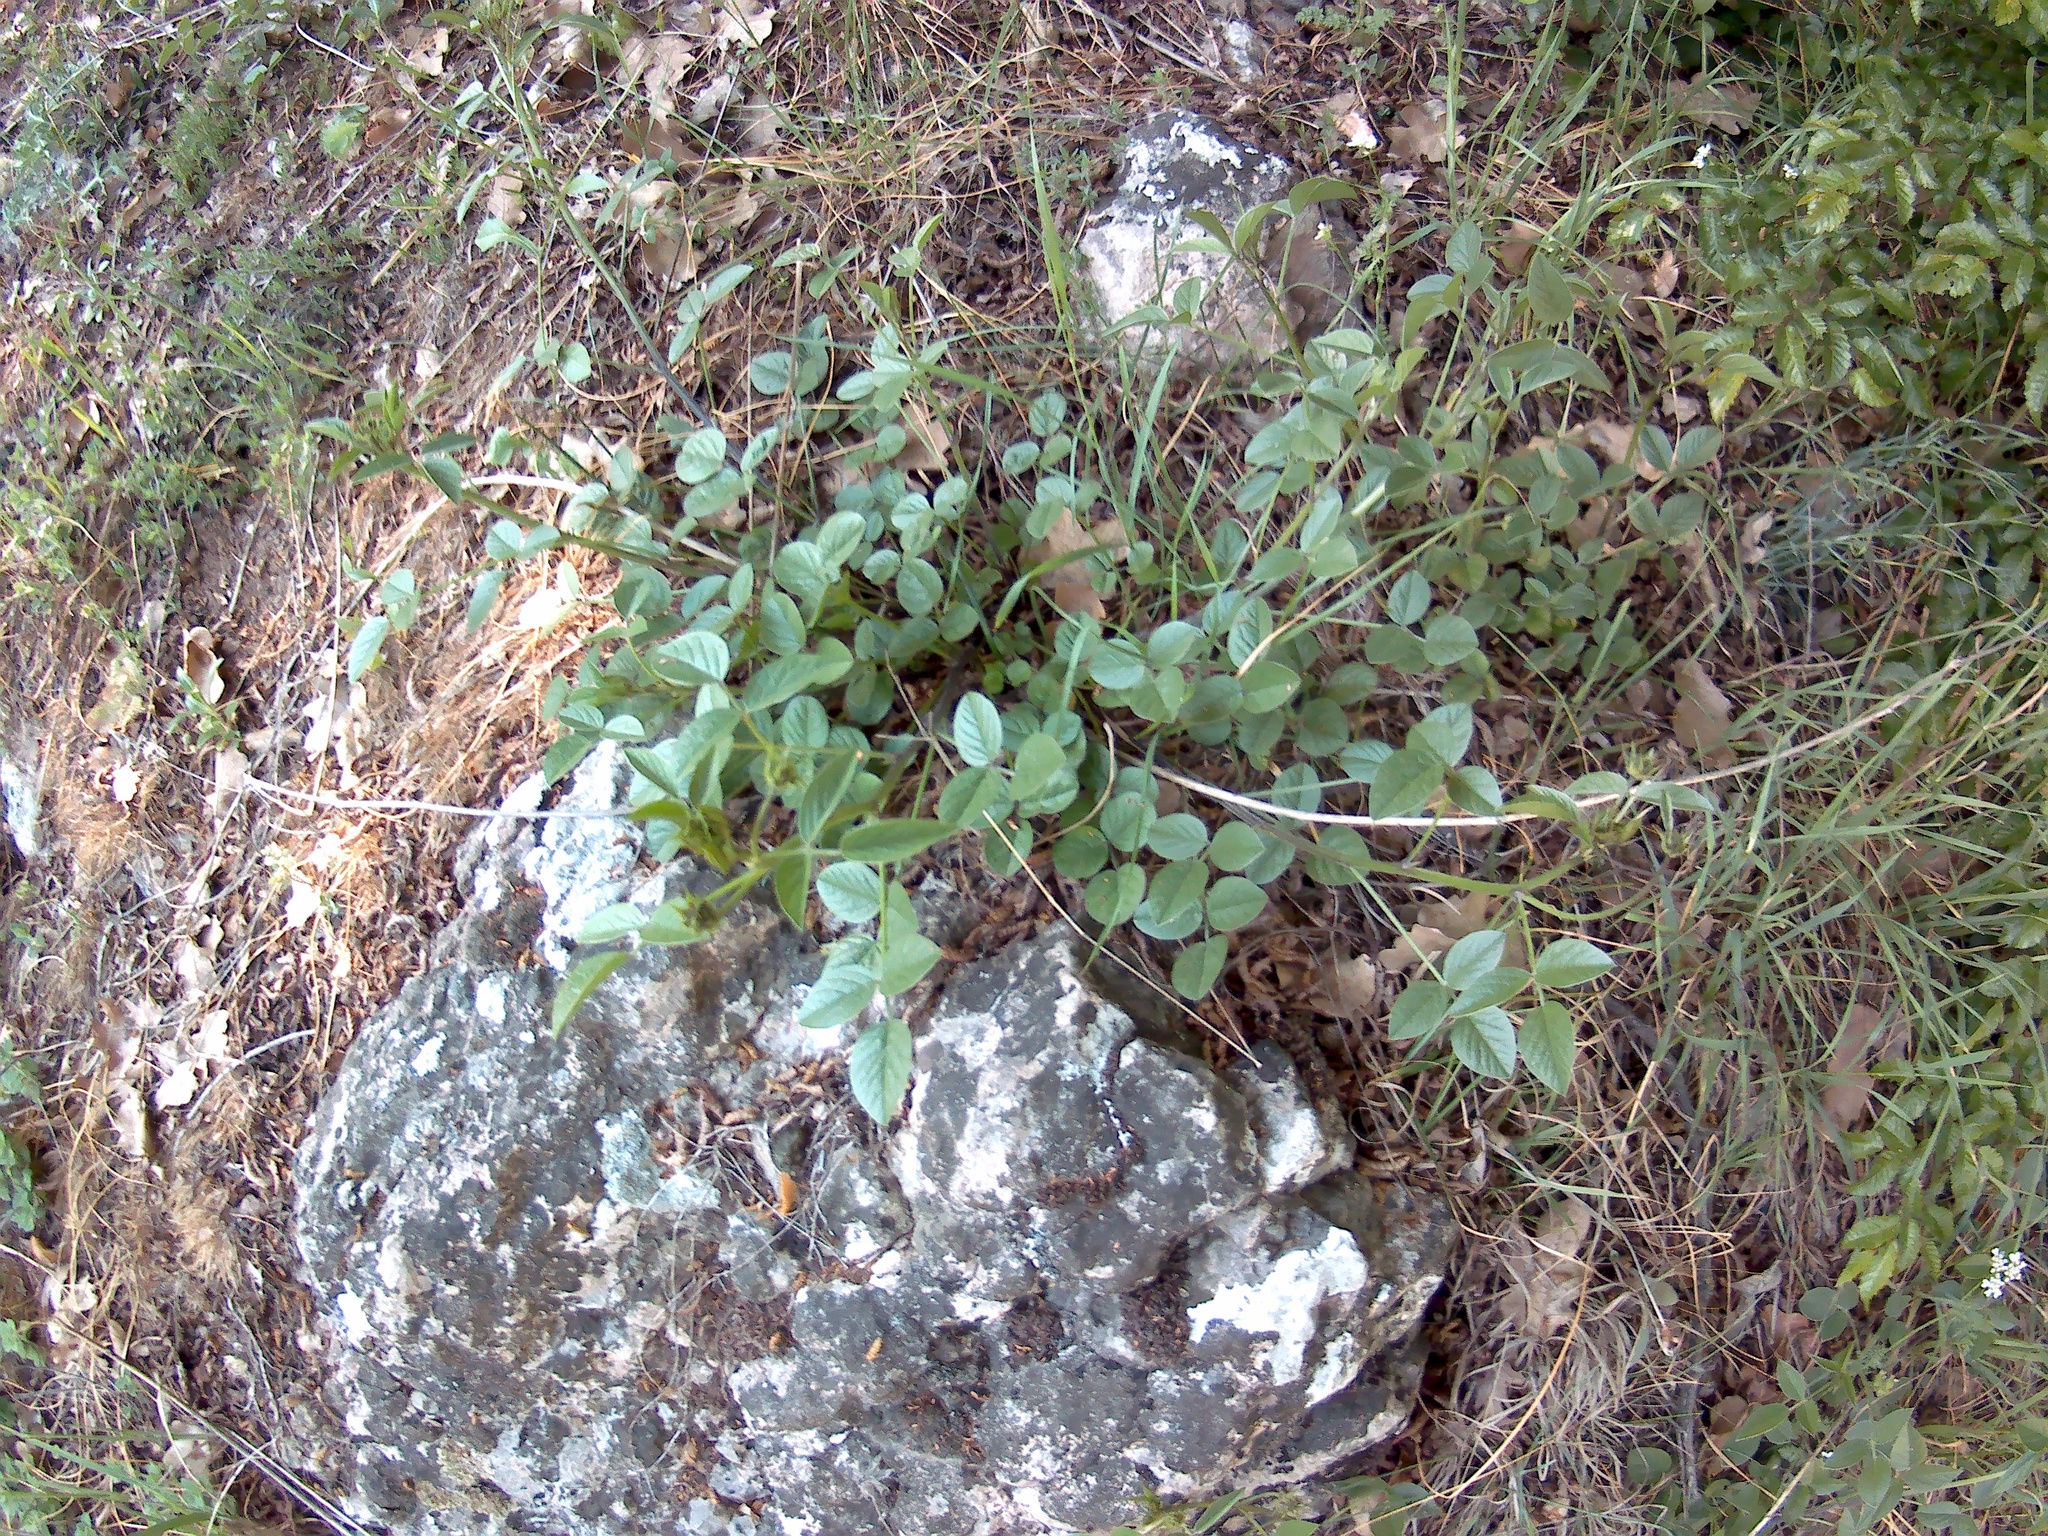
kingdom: Plantae
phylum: Tracheophyta
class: Magnoliopsida
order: Fabales
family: Fabaceae
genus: Bituminaria
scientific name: Bituminaria bituminosa
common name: Arabian pea
